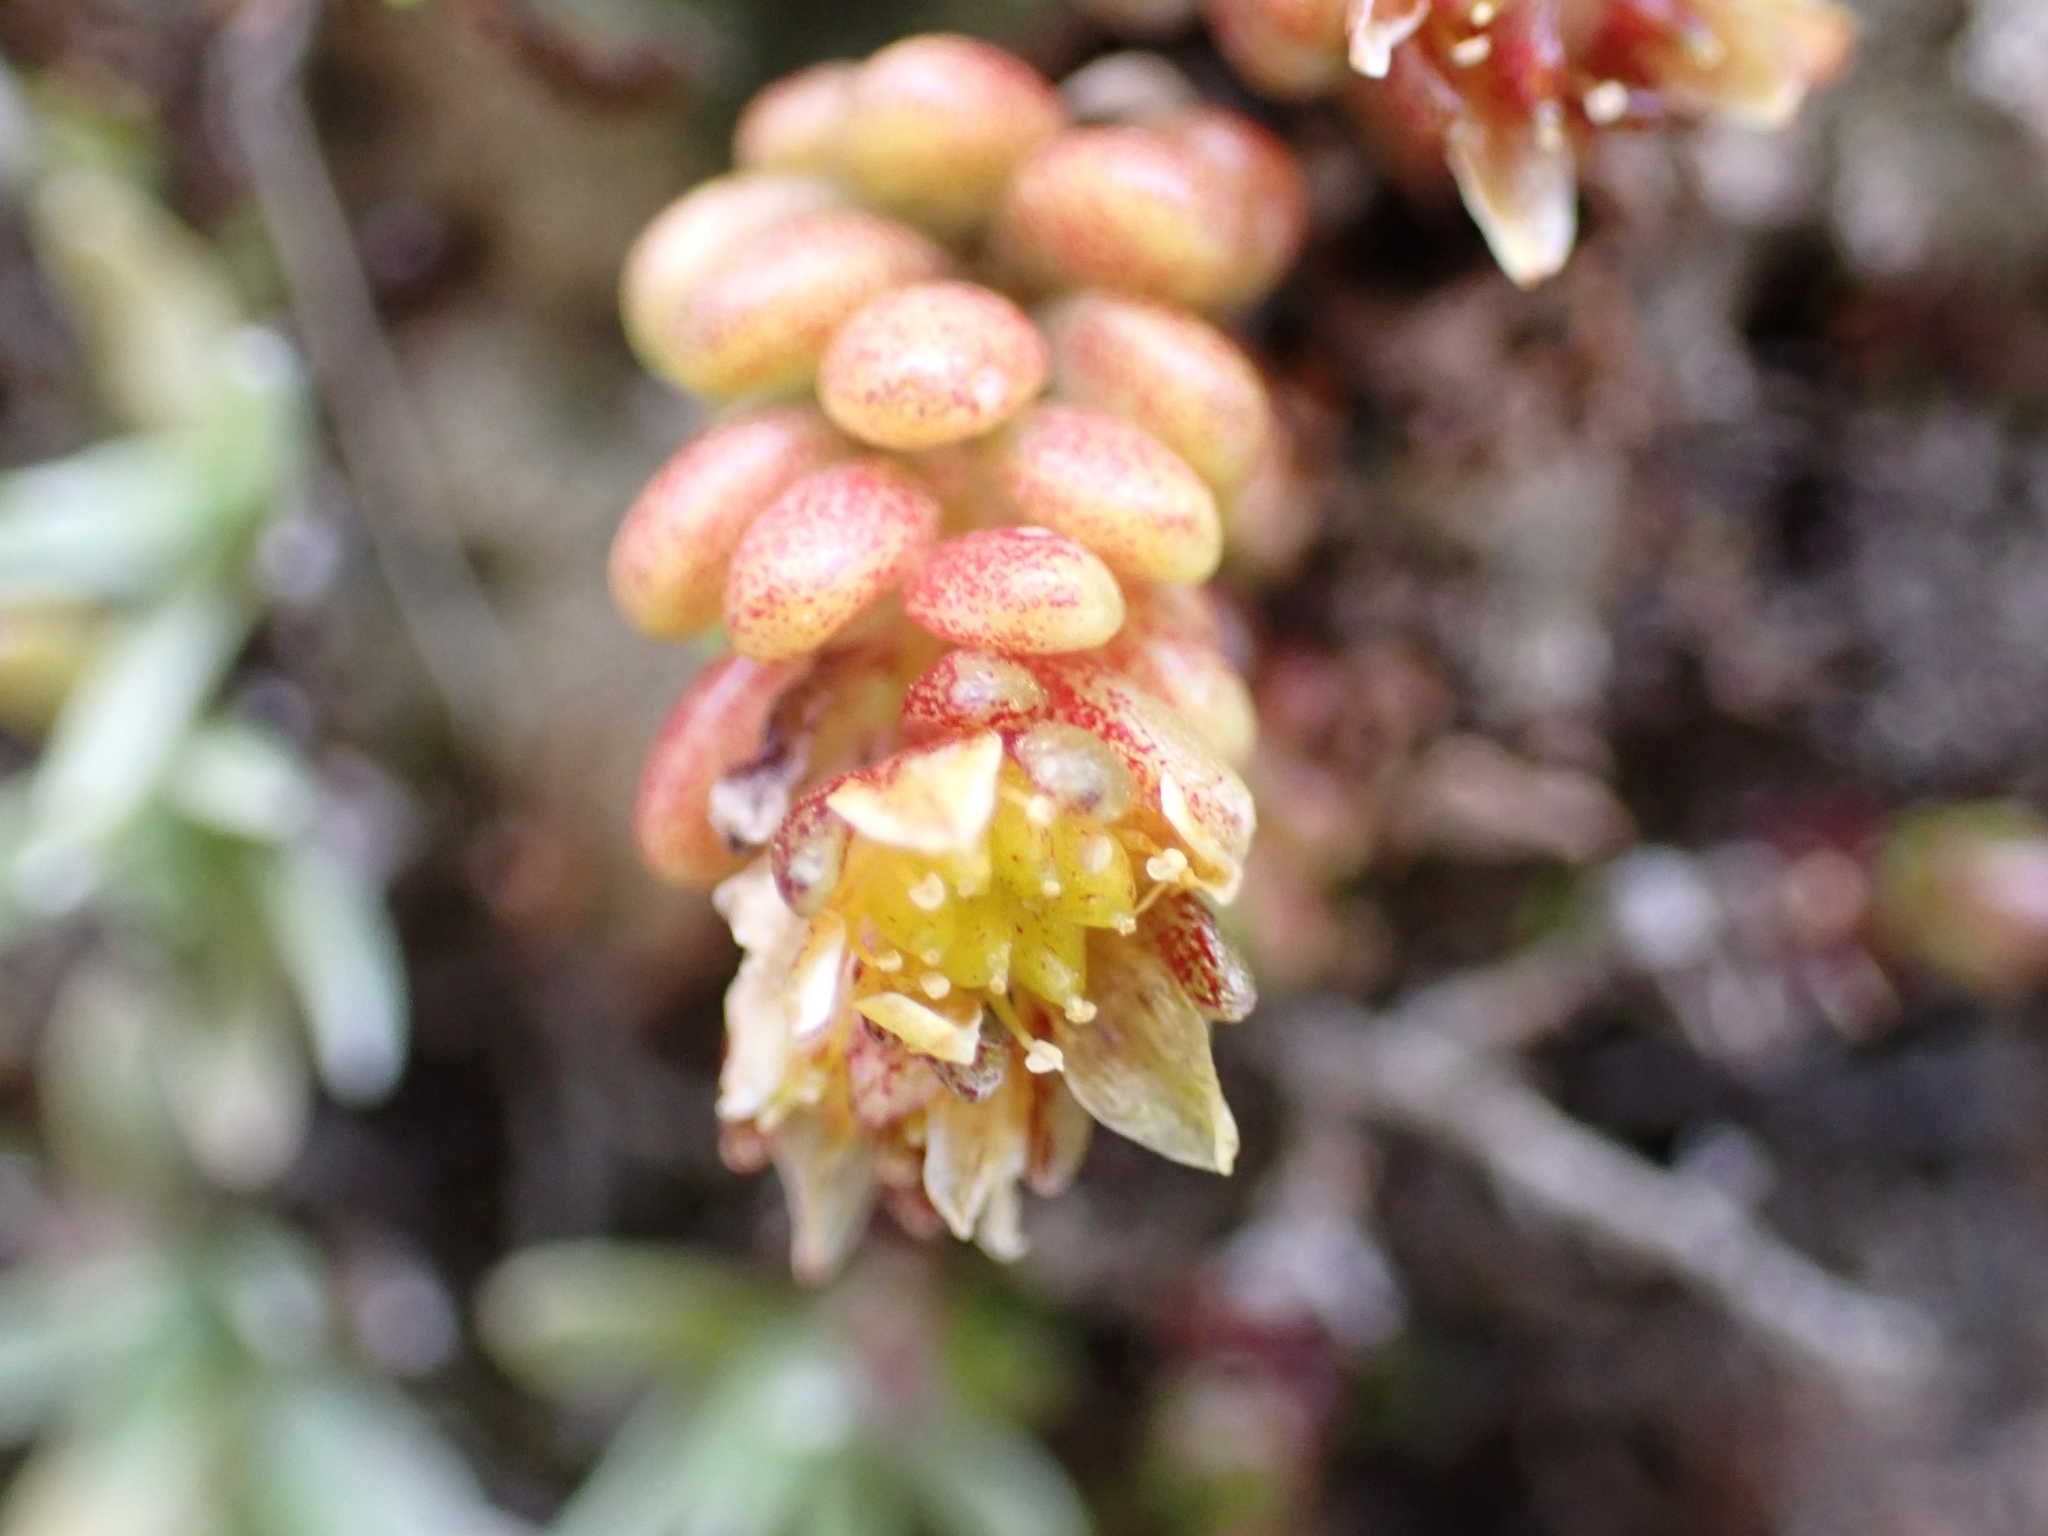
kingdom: Plantae
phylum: Tracheophyta
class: Magnoliopsida
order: Saxifragales
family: Crassulaceae
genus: Sedum
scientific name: Sedum alpestre
